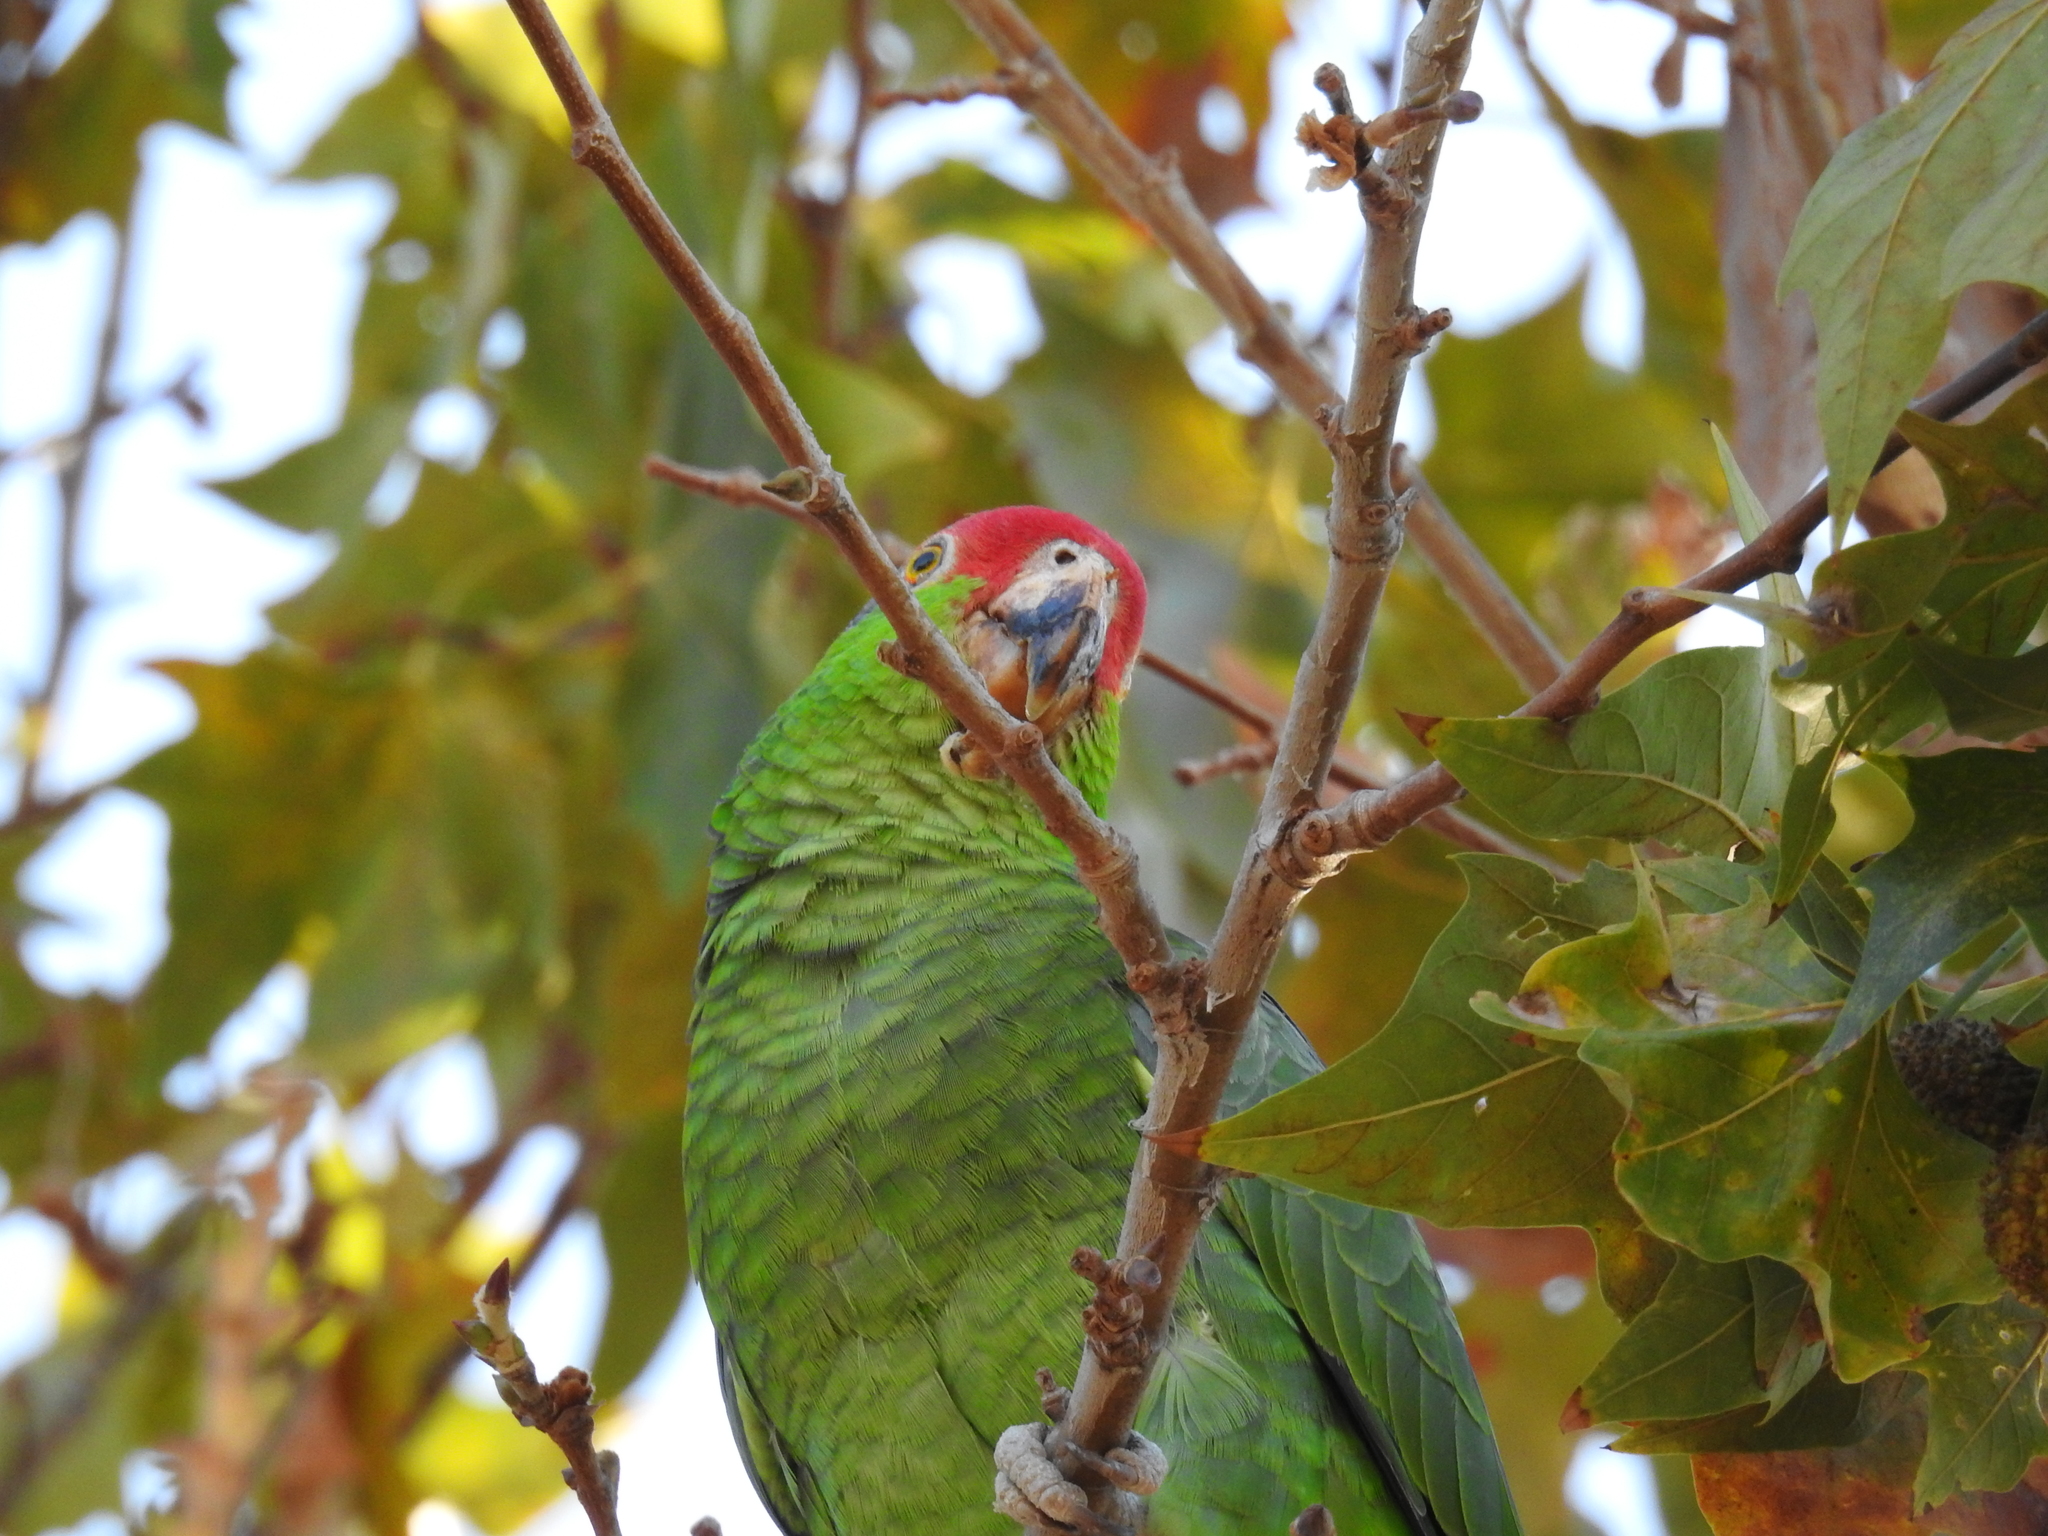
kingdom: Animalia
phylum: Chordata
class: Aves
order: Psittaciformes
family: Psittacidae
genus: Amazona
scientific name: Amazona viridigenalis
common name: Red-crowned amazon
